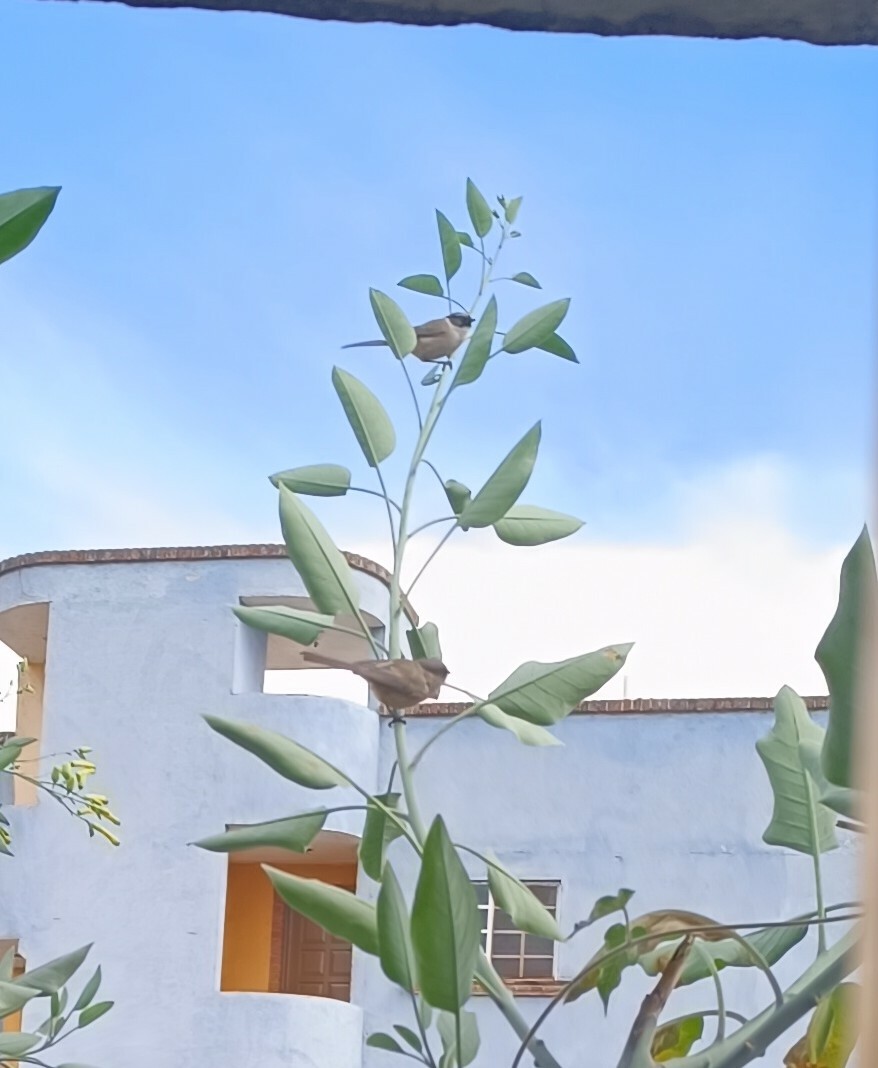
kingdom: Animalia
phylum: Chordata
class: Aves
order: Passeriformes
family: Aegithalidae
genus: Psaltriparus
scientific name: Psaltriparus minimus
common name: American bushtit
